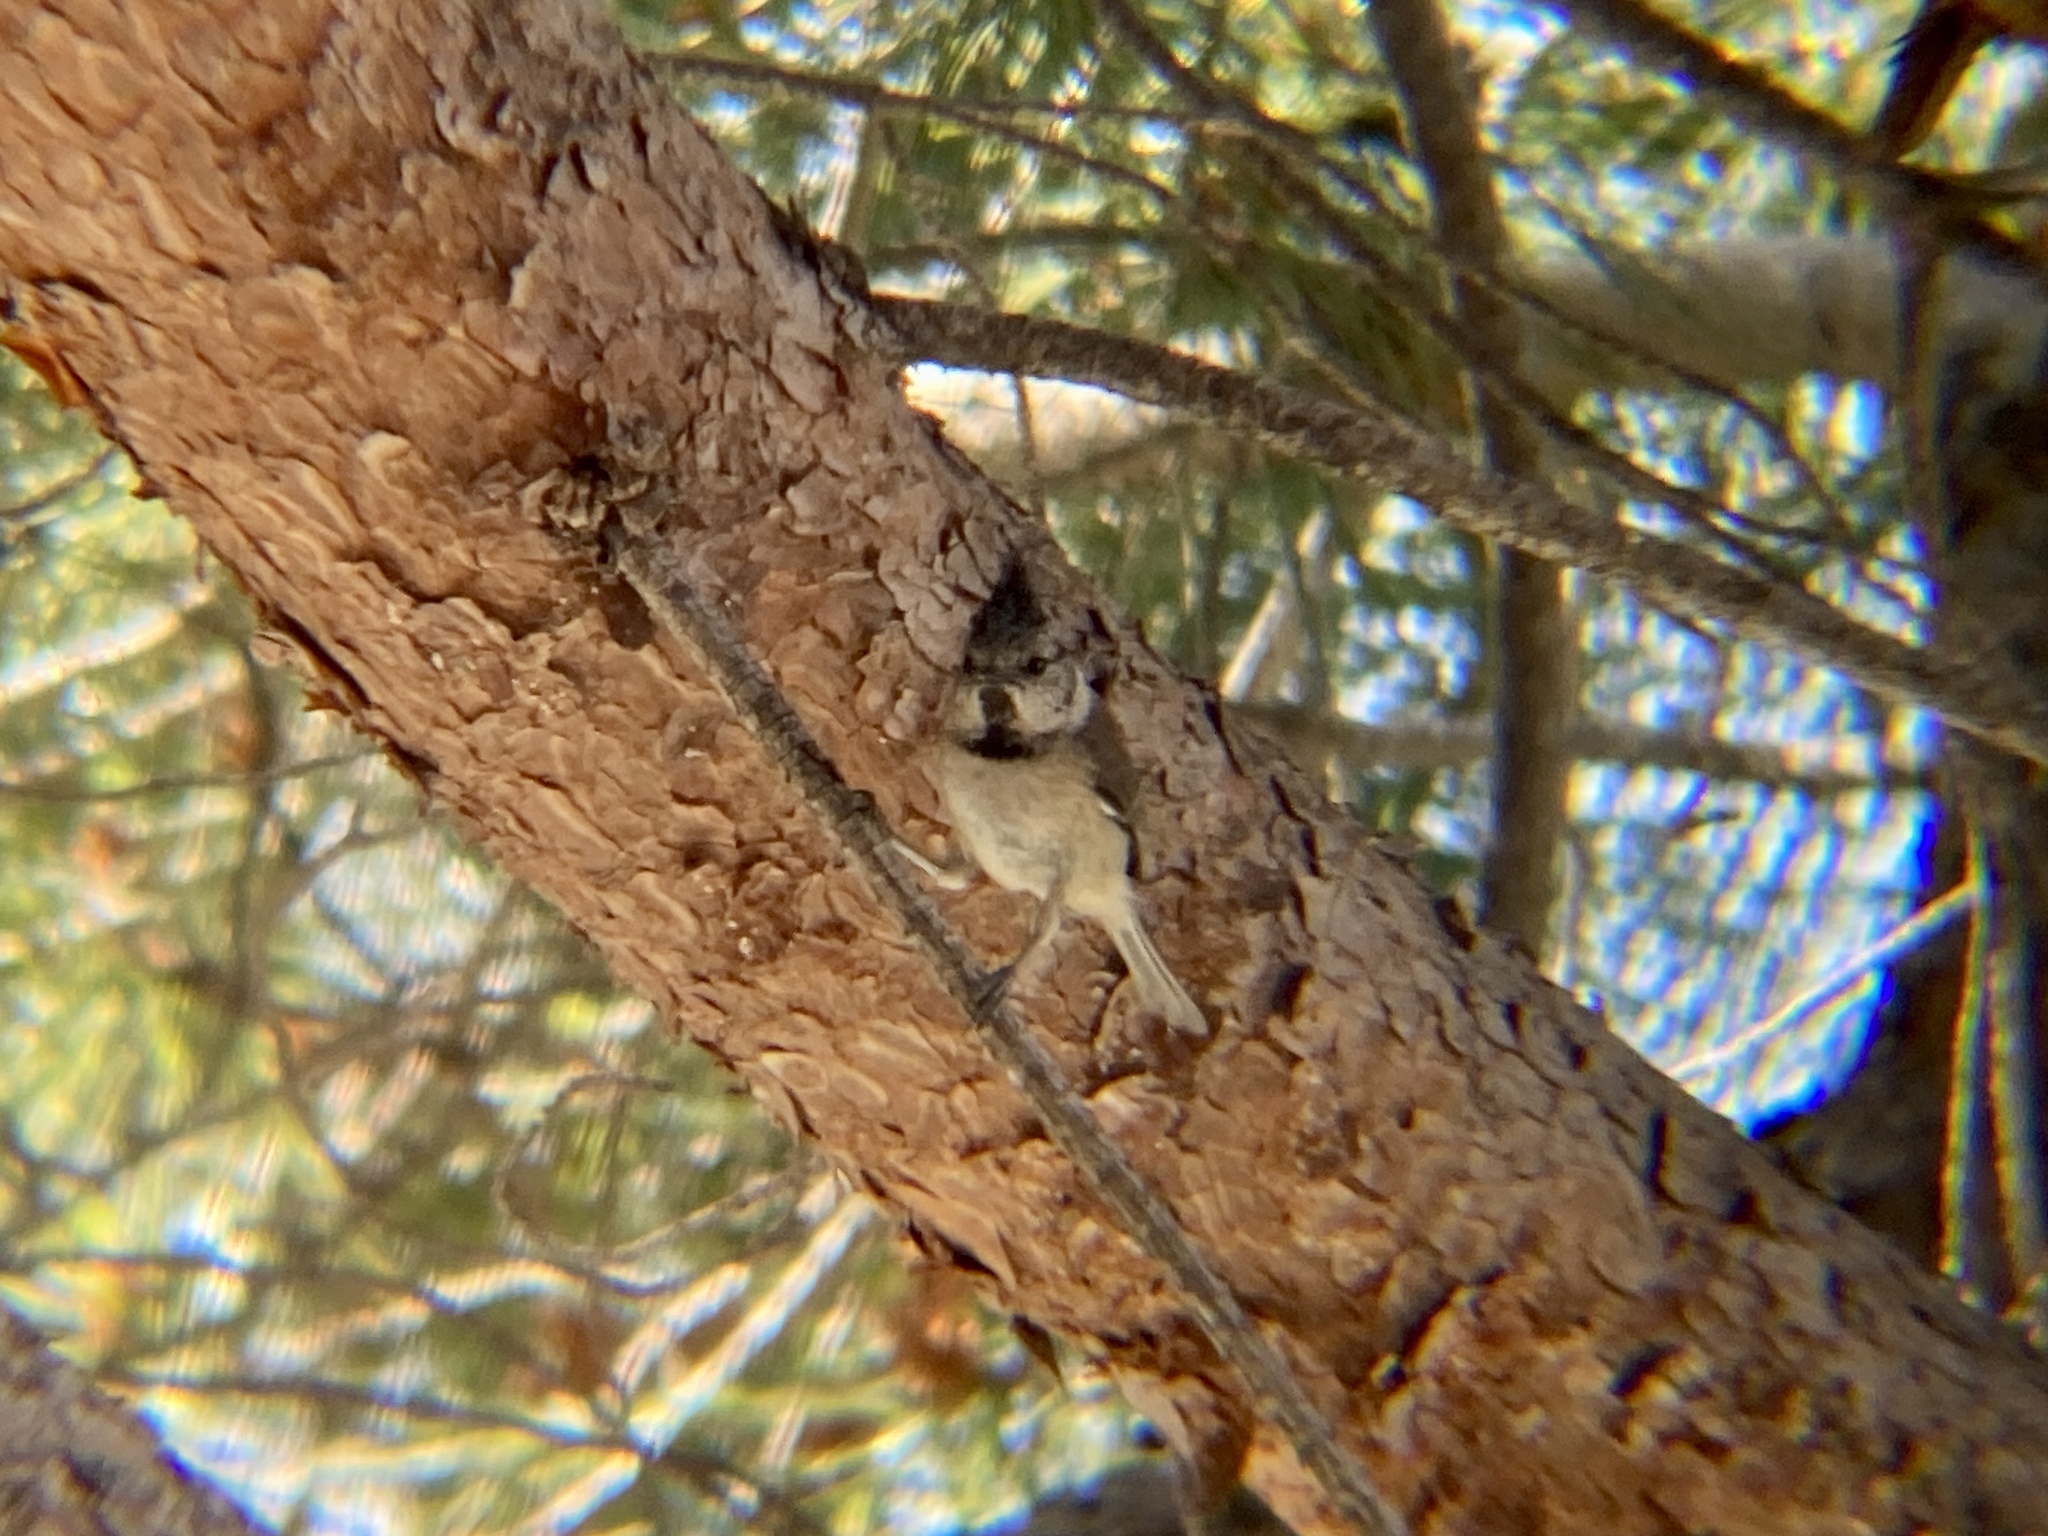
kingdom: Animalia
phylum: Chordata
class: Aves
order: Passeriformes
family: Paridae
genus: Lophophanes
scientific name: Lophophanes cristatus
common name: European crested tit
